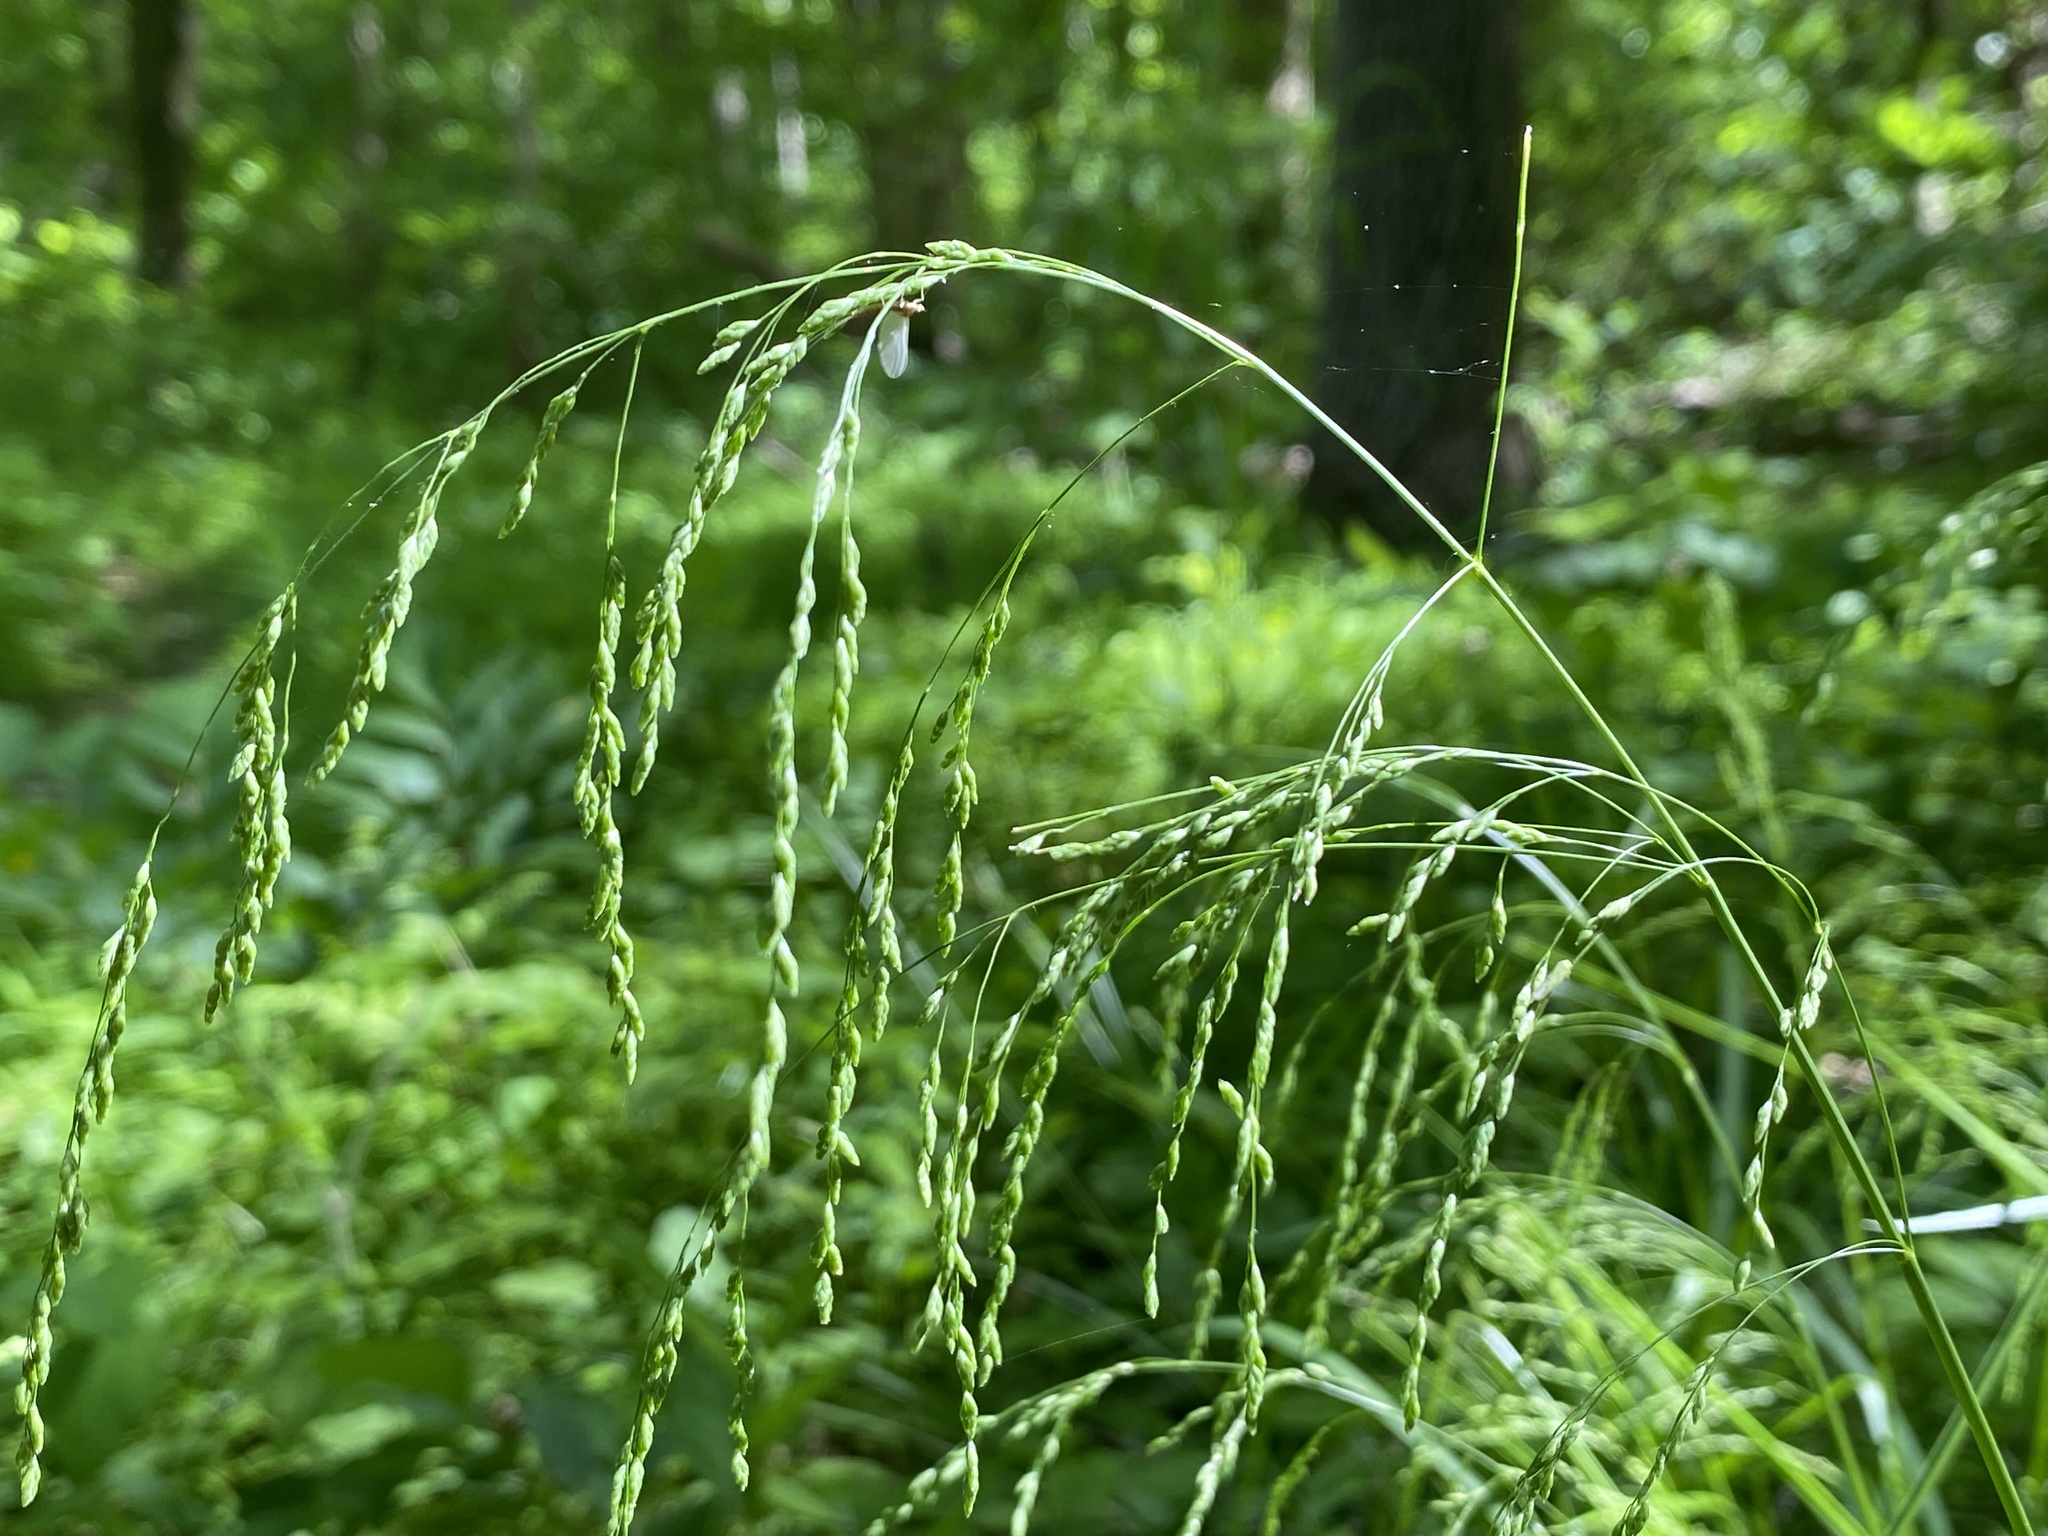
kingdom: Plantae
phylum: Tracheophyta
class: Liliopsida
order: Poales
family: Poaceae
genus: Glyceria
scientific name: Glyceria striata
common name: Fowl manna grass
